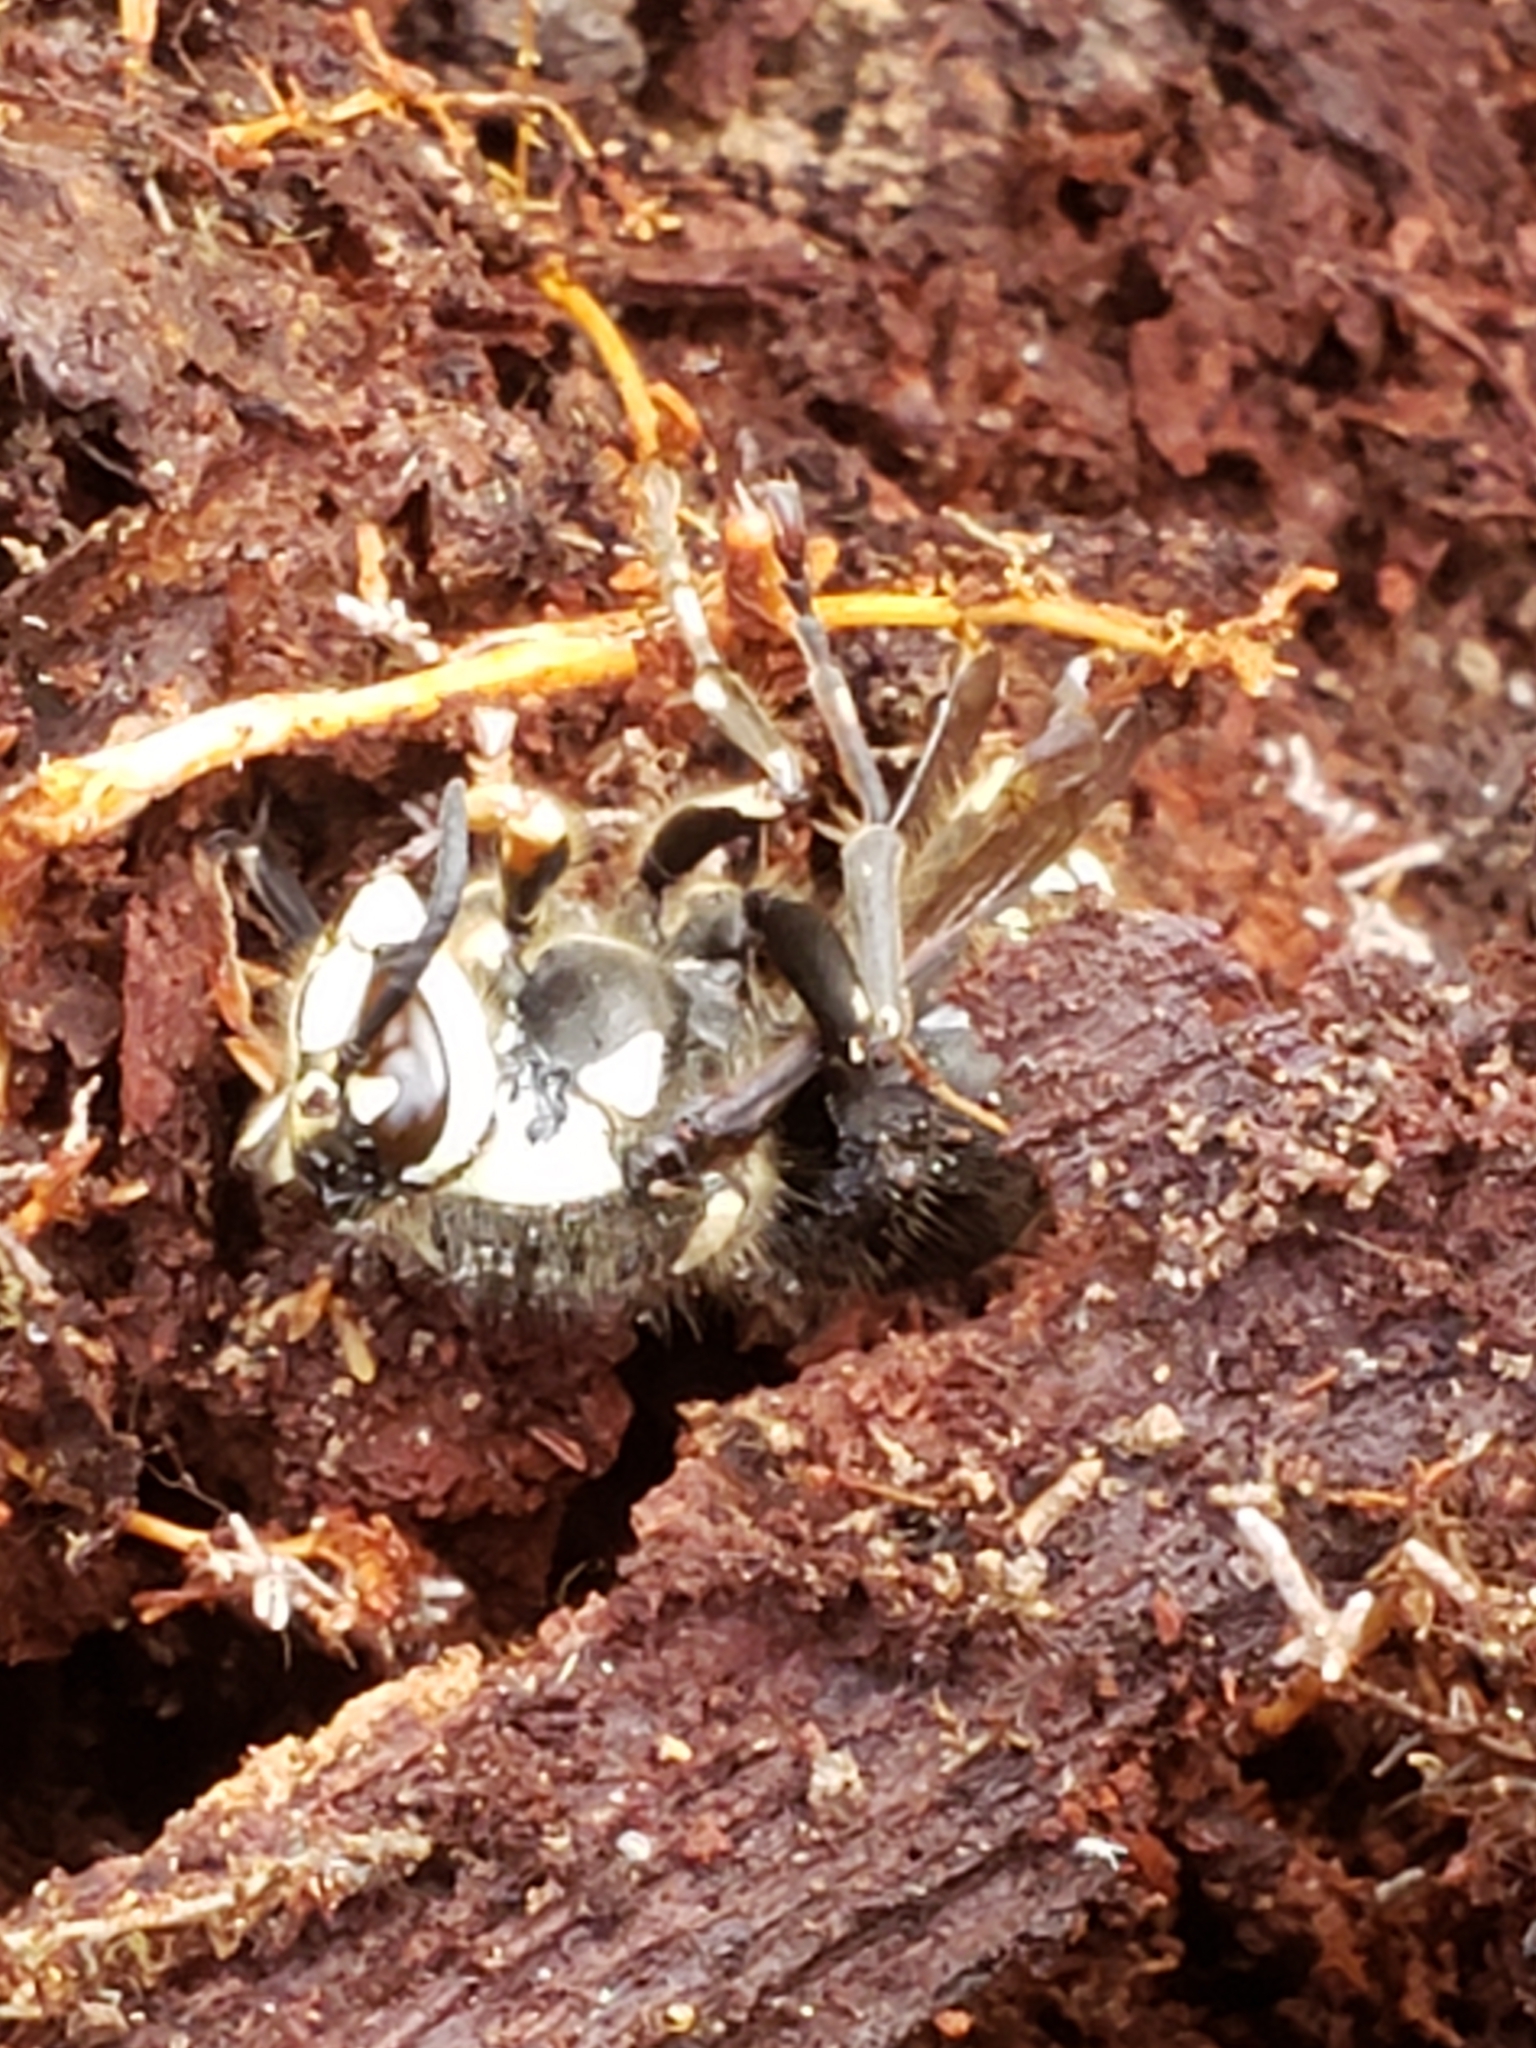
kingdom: Animalia
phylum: Arthropoda
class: Insecta
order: Hymenoptera
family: Vespidae
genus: Dolichovespula
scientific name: Dolichovespula maculata
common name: Bald-faced hornet
